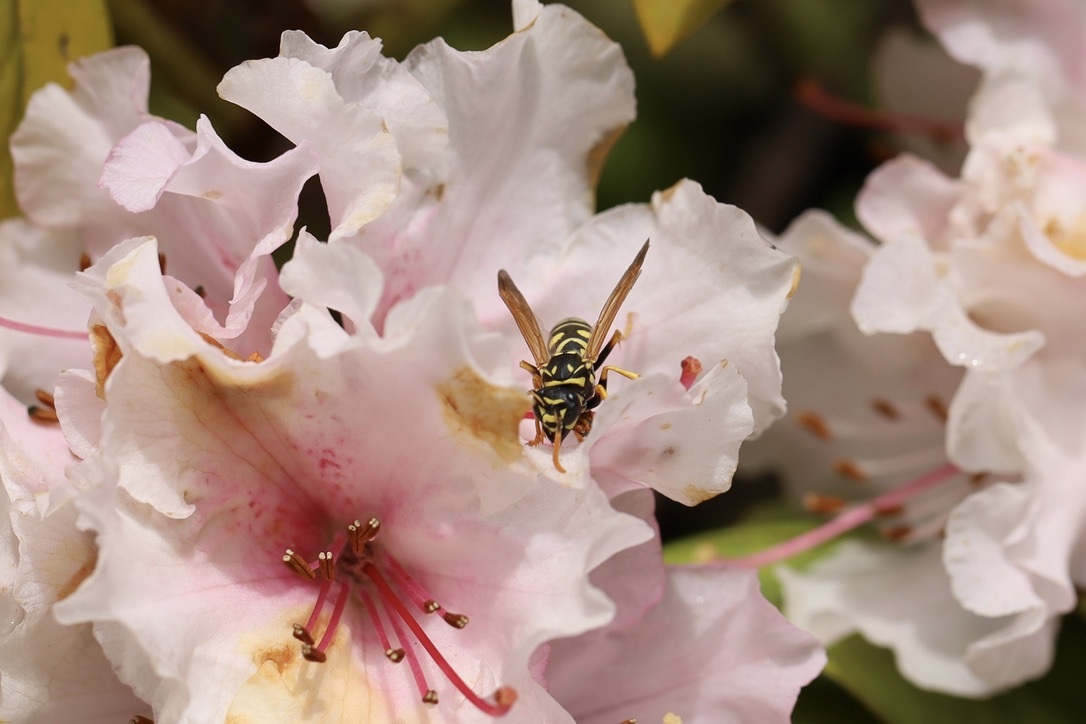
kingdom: Animalia
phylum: Arthropoda
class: Insecta
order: Hymenoptera
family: Eumenidae
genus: Polistes
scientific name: Polistes dominula
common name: Paper wasp
